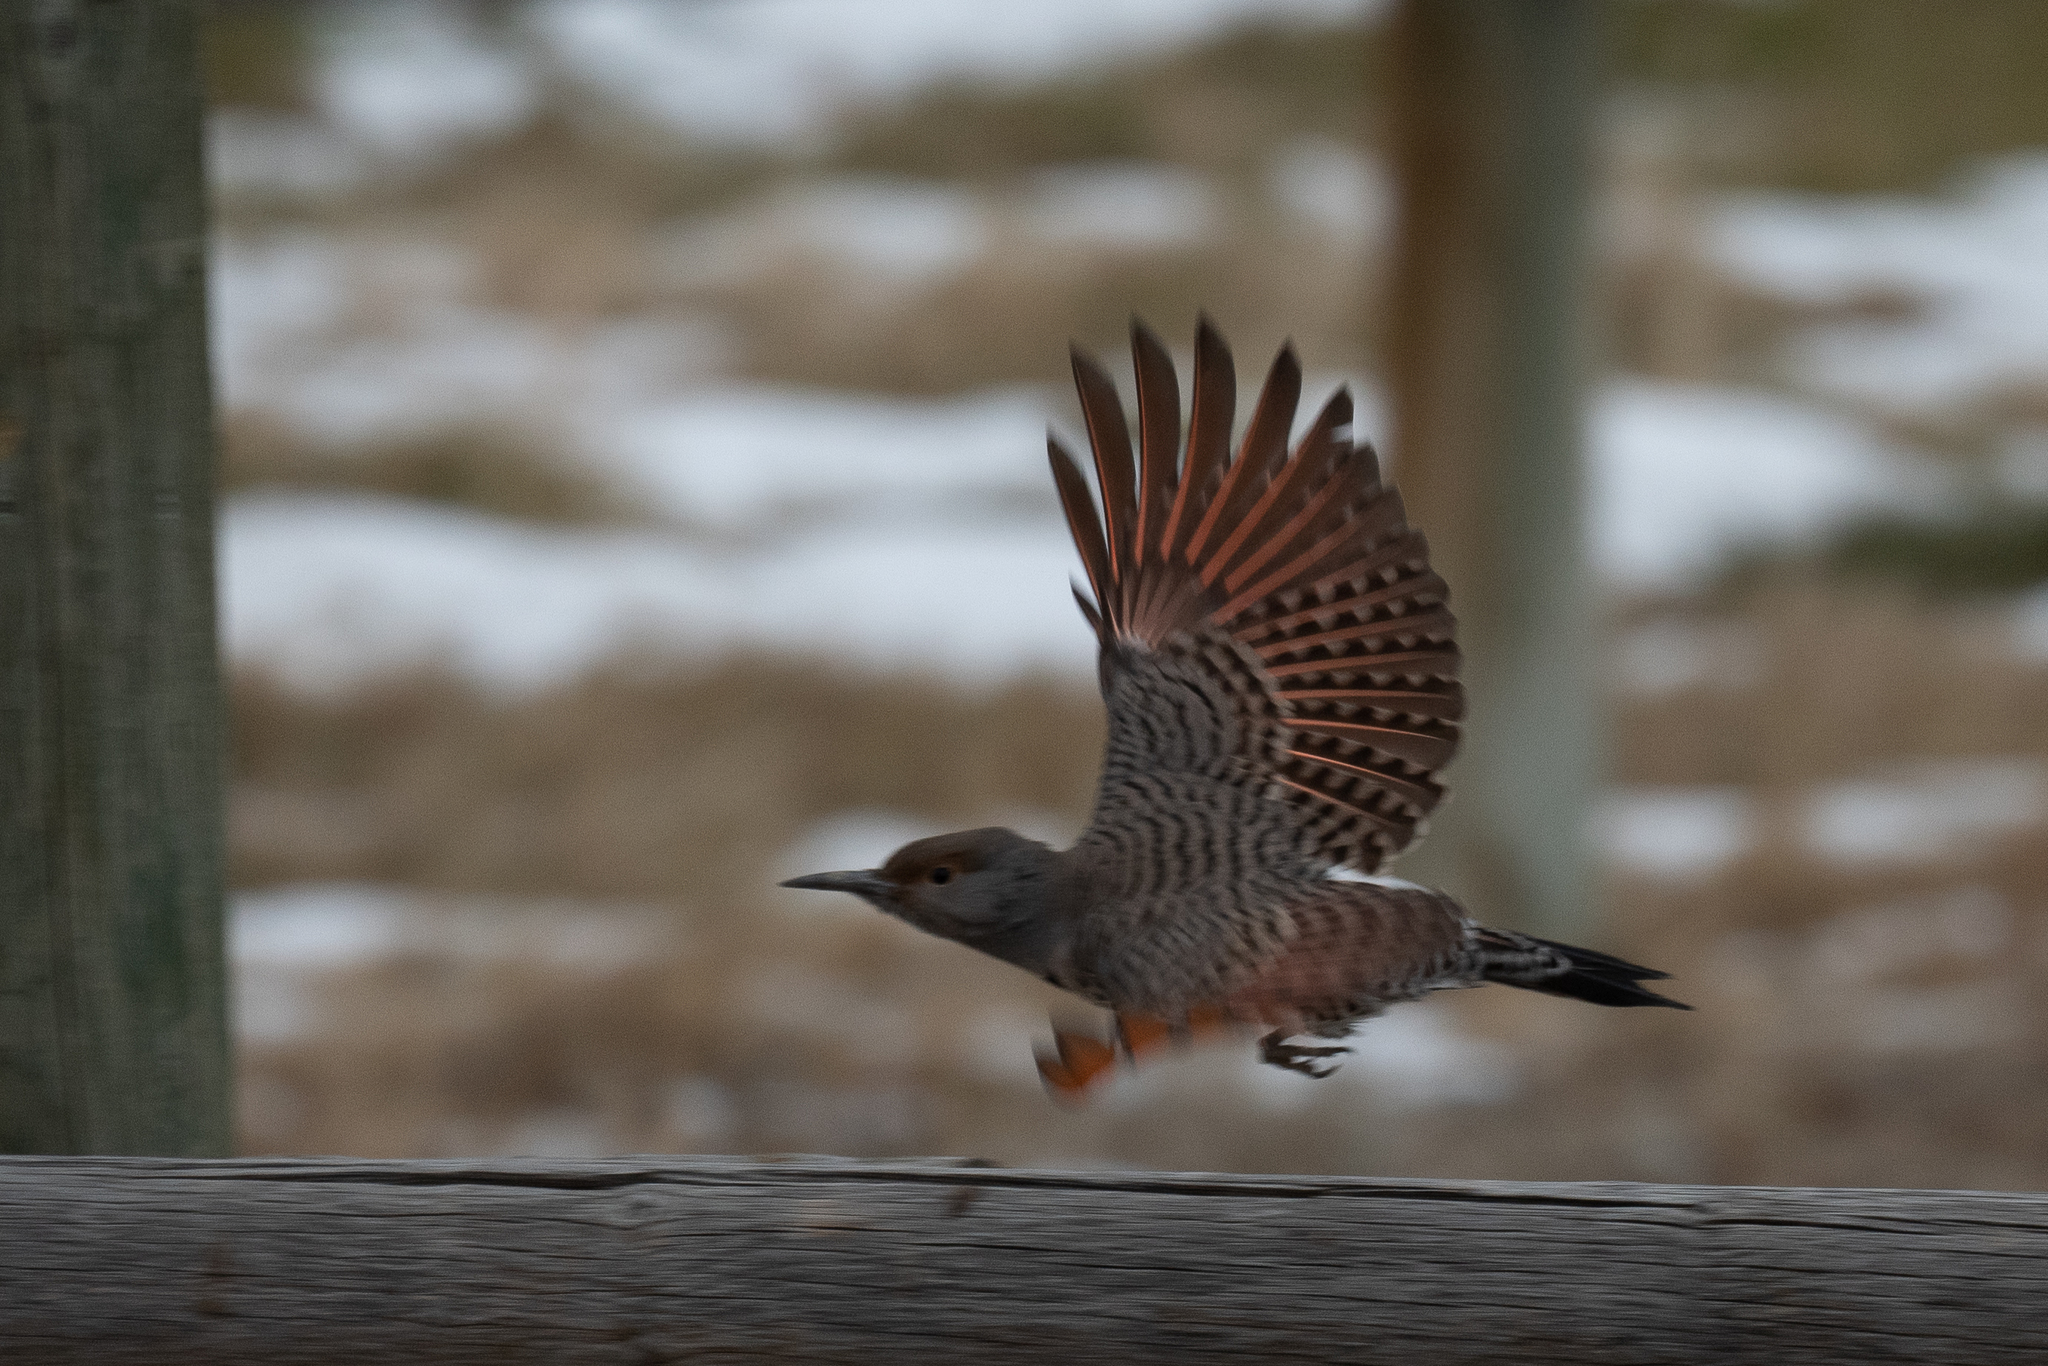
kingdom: Animalia
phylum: Chordata
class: Aves
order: Piciformes
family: Picidae
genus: Colaptes
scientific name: Colaptes auratus
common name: Northern flicker
